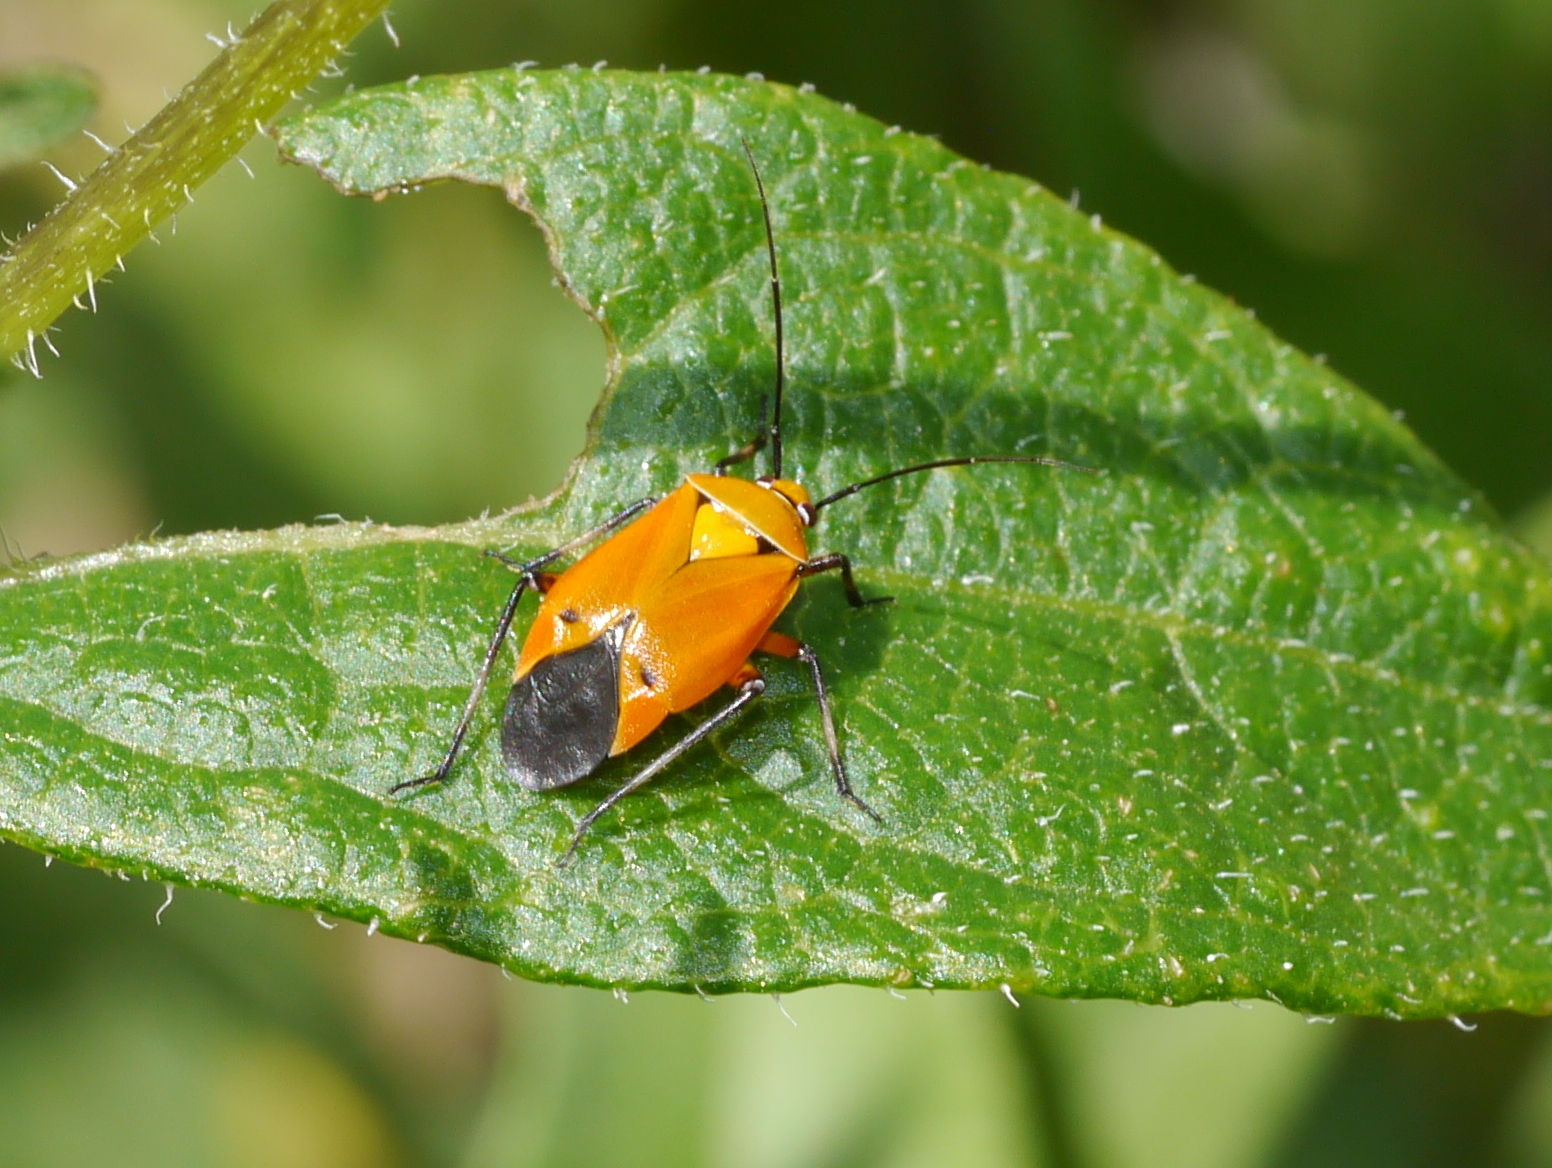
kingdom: Animalia
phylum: Arthropoda
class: Insecta
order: Hemiptera
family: Miridae
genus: Neocapsus
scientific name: Neocapsus fasciativentris
